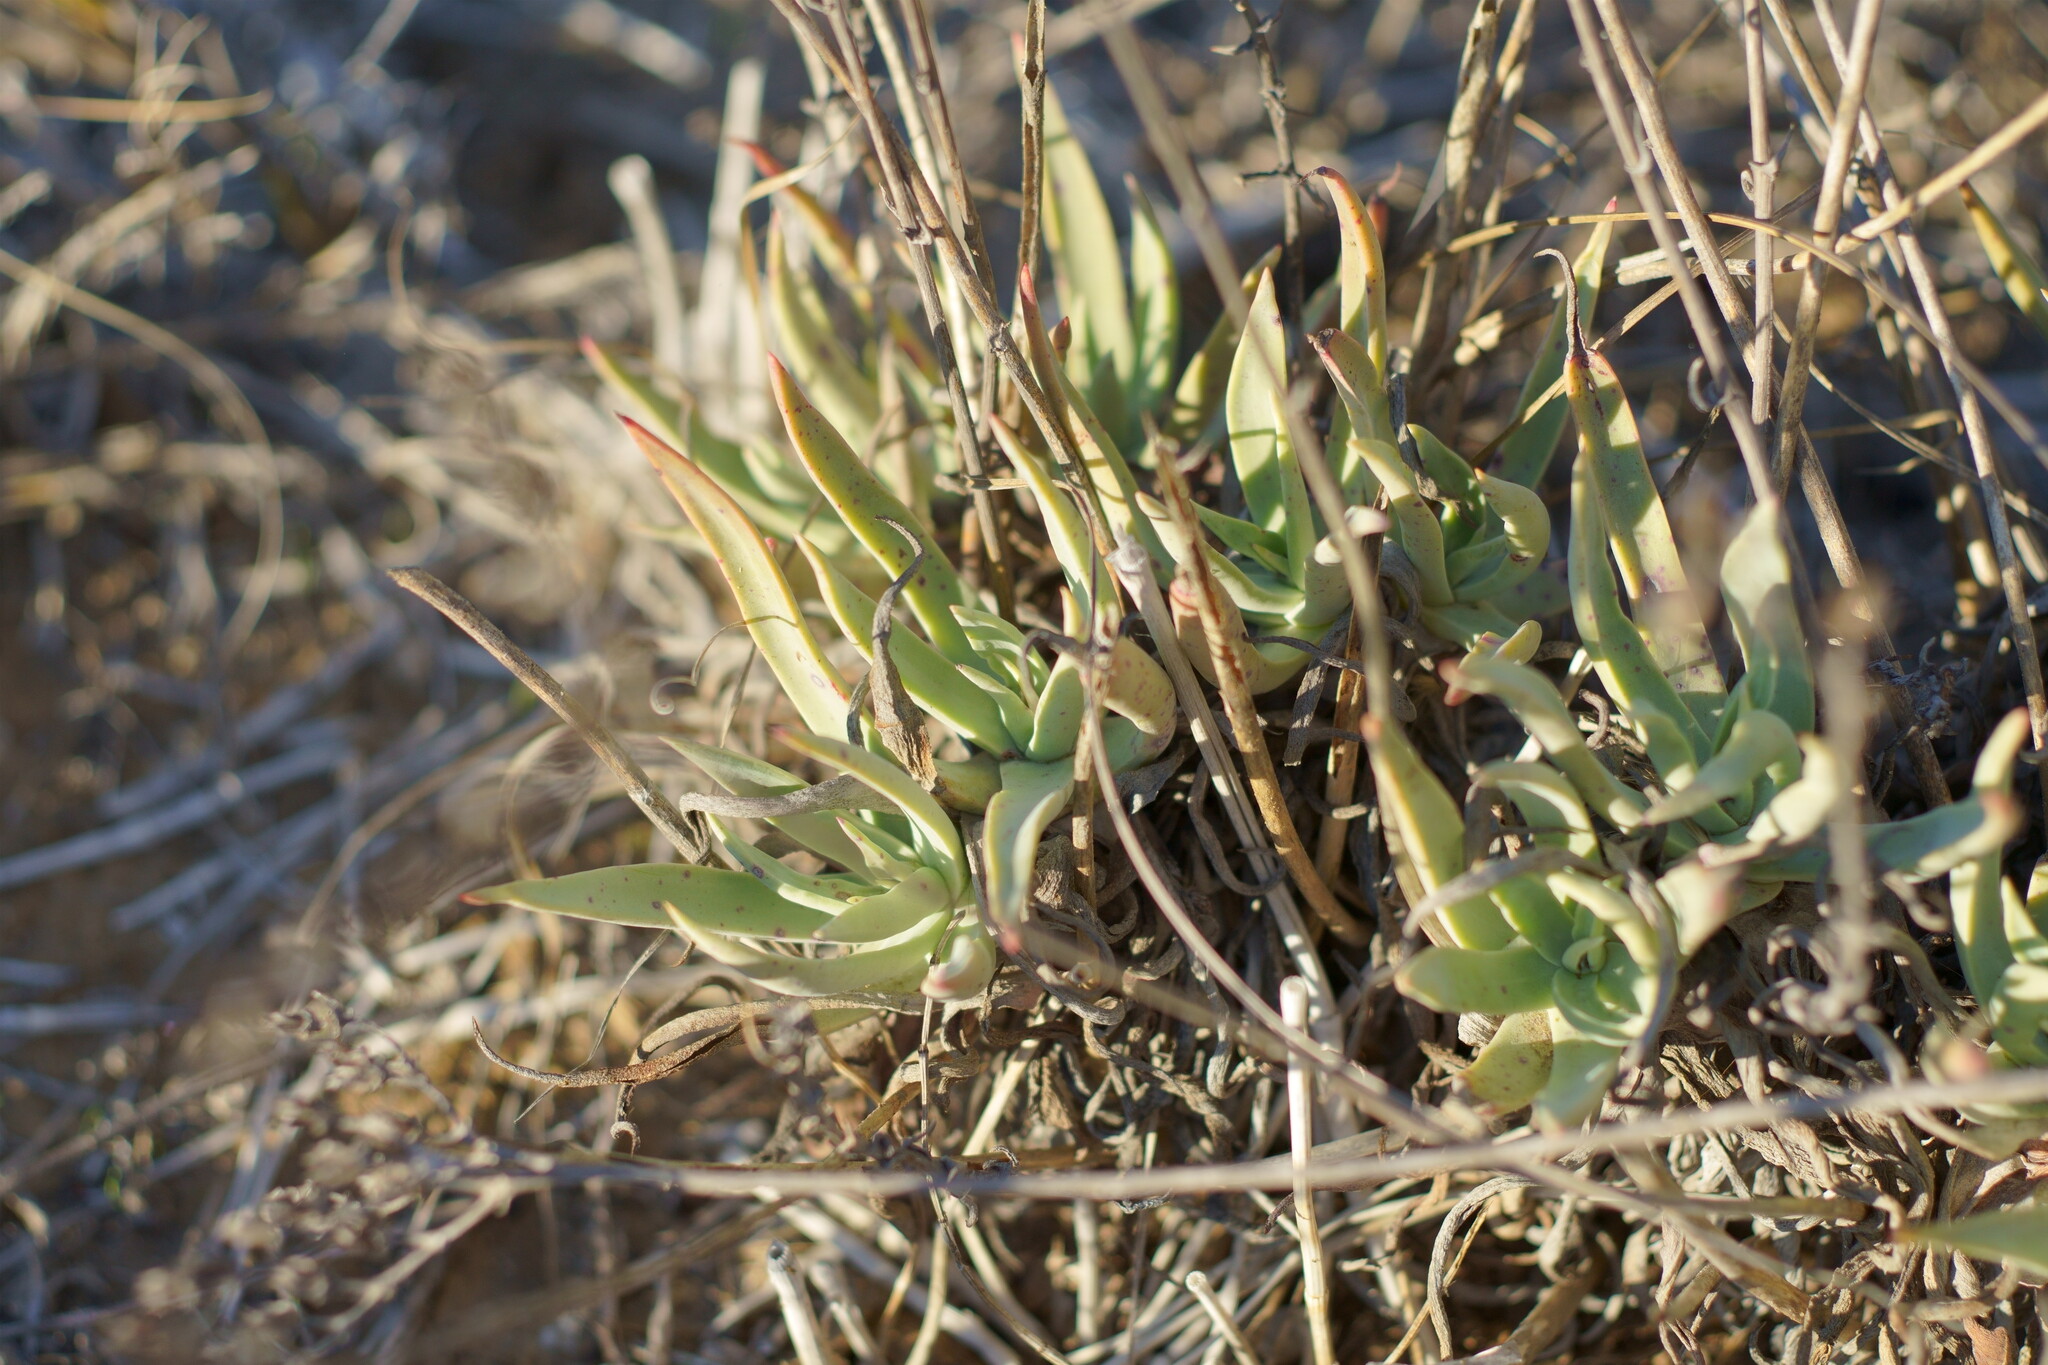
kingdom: Plantae
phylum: Tracheophyta
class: Magnoliopsida
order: Saxifragales
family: Crassulaceae
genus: Dudleya
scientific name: Dudleya caespitosa
